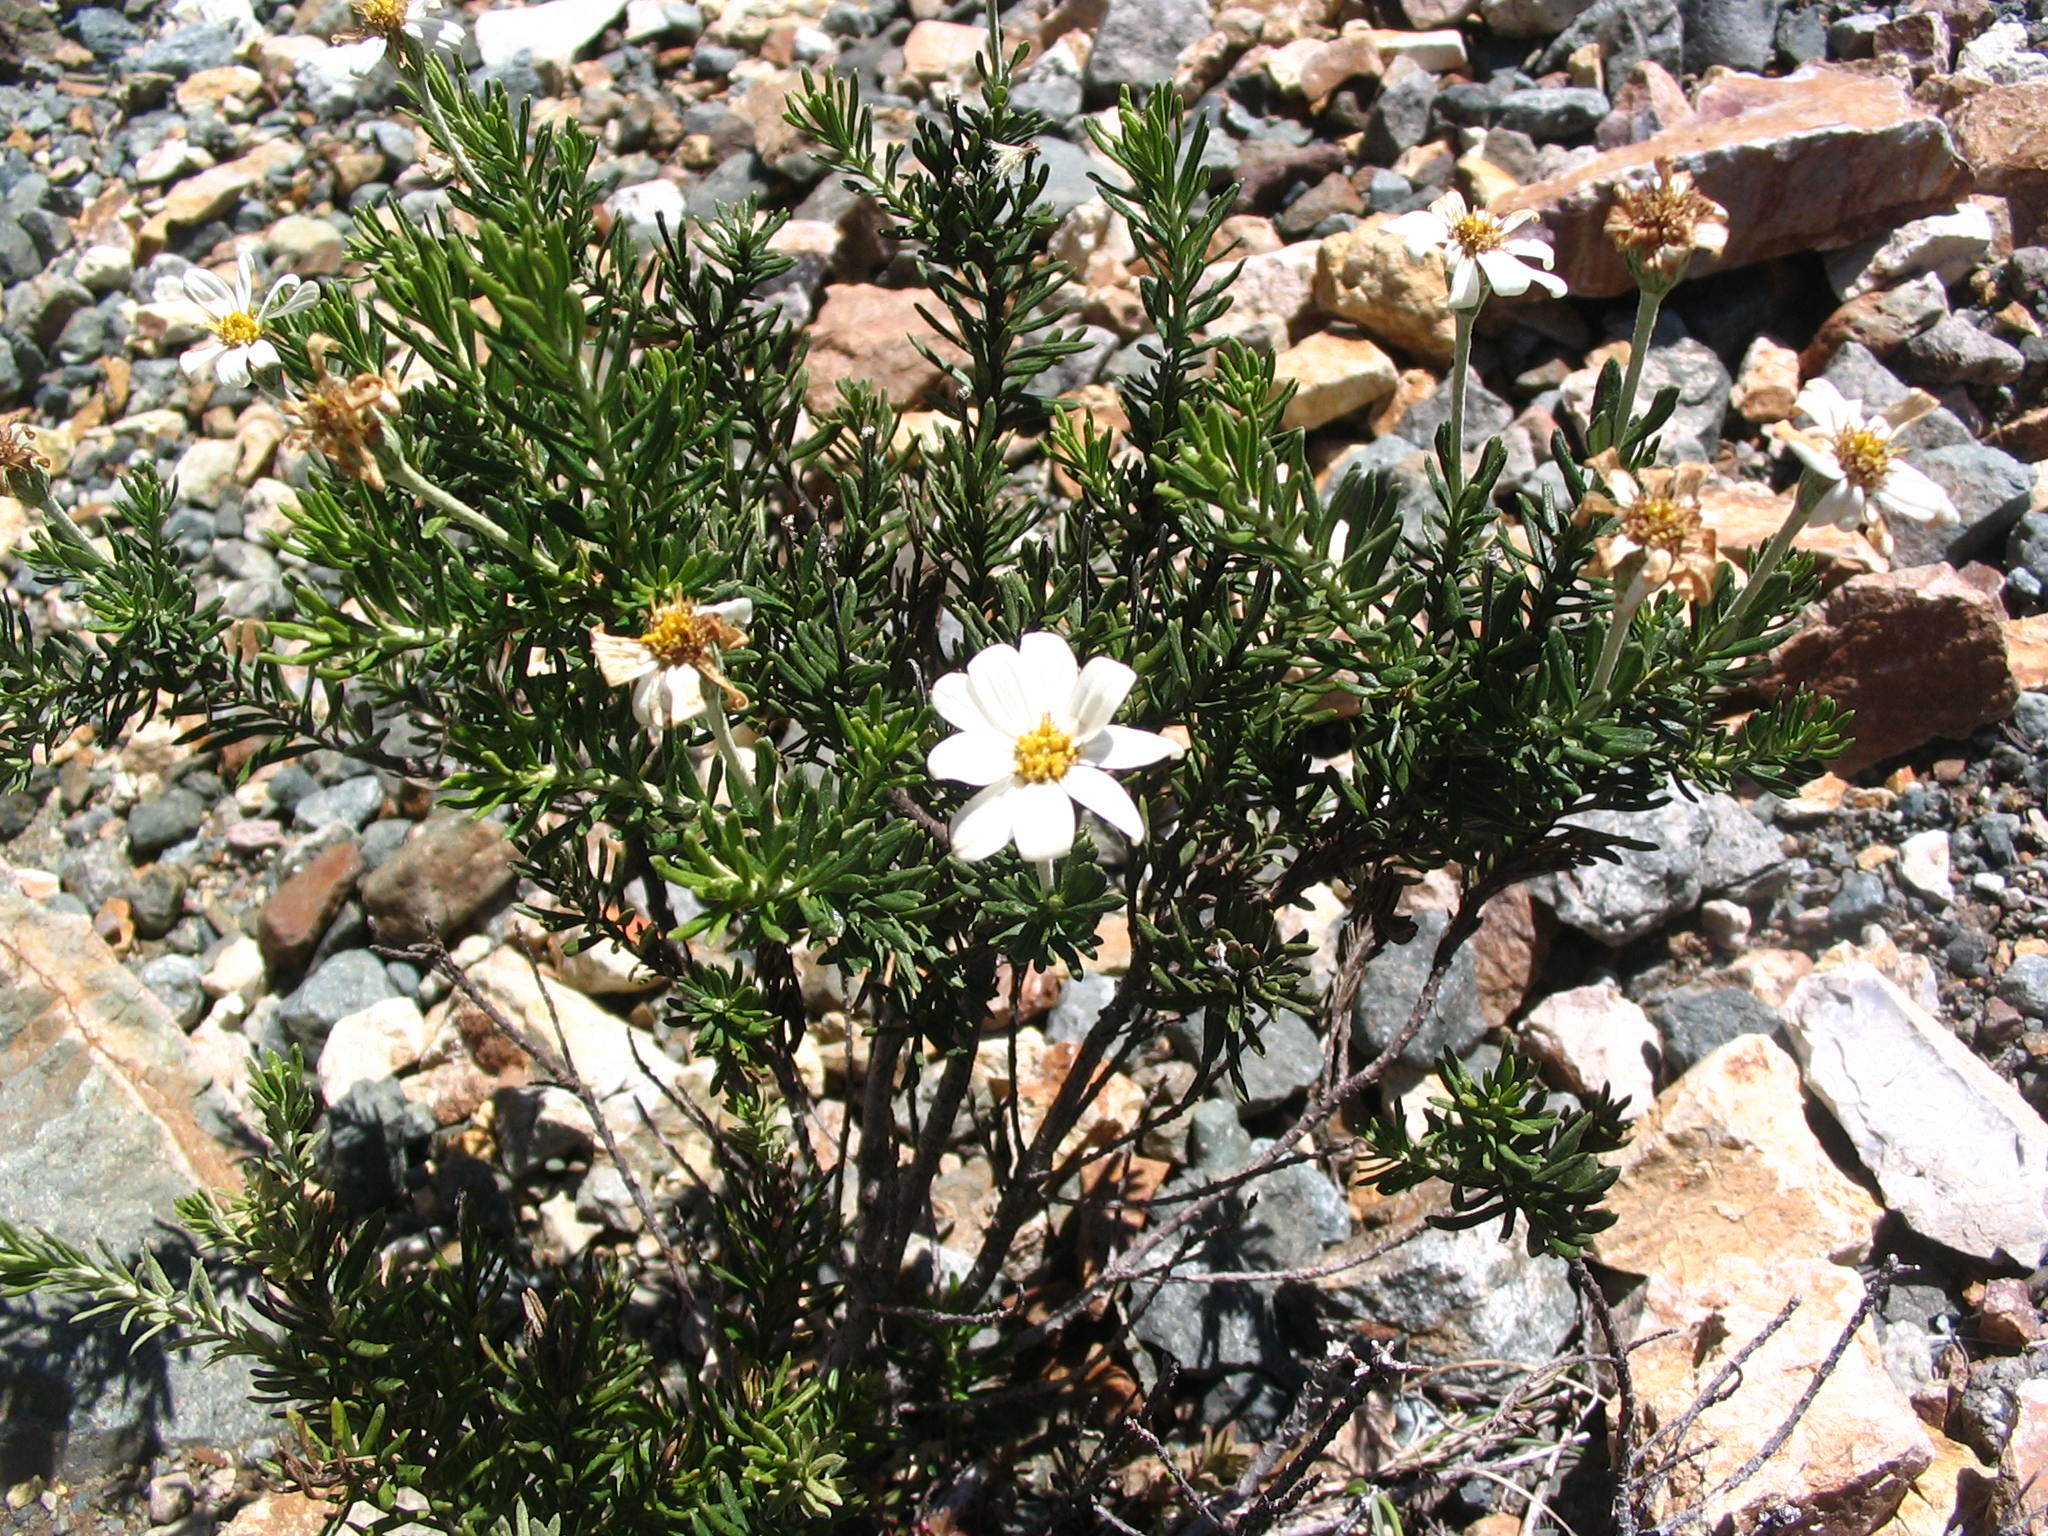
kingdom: Plantae
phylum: Tracheophyta
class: Magnoliopsida
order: Asterales
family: Asteraceae
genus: Chiliotrichum
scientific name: Chiliotrichum diffusum
